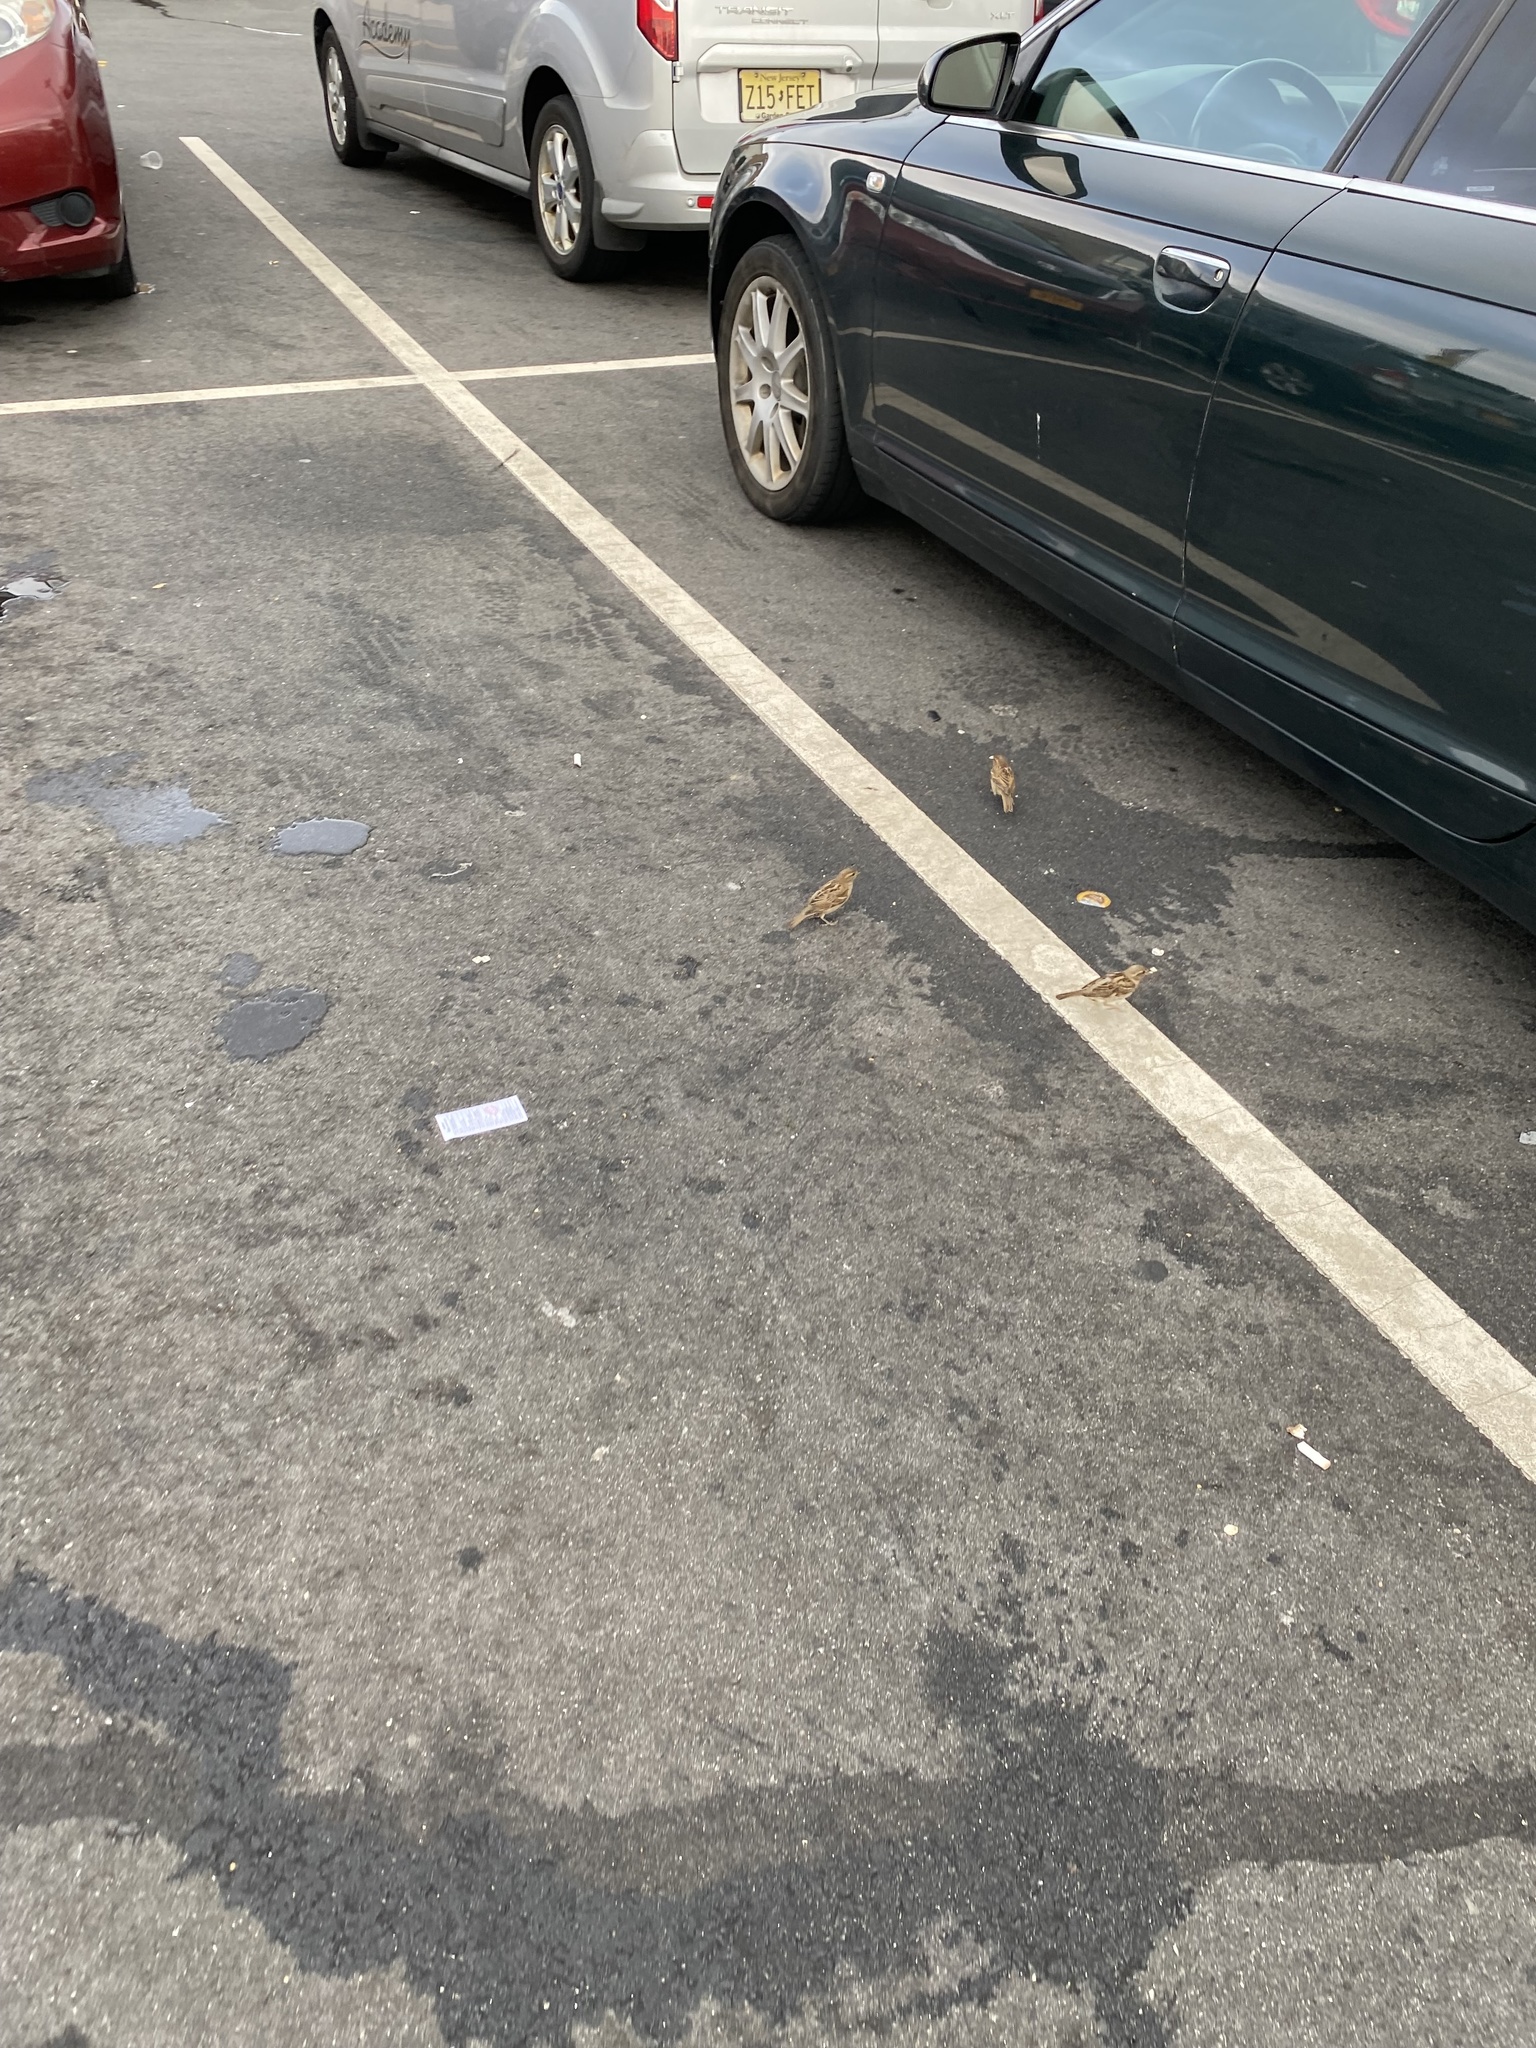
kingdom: Animalia
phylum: Chordata
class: Aves
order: Passeriformes
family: Passeridae
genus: Passer
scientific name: Passer domesticus
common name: House sparrow
